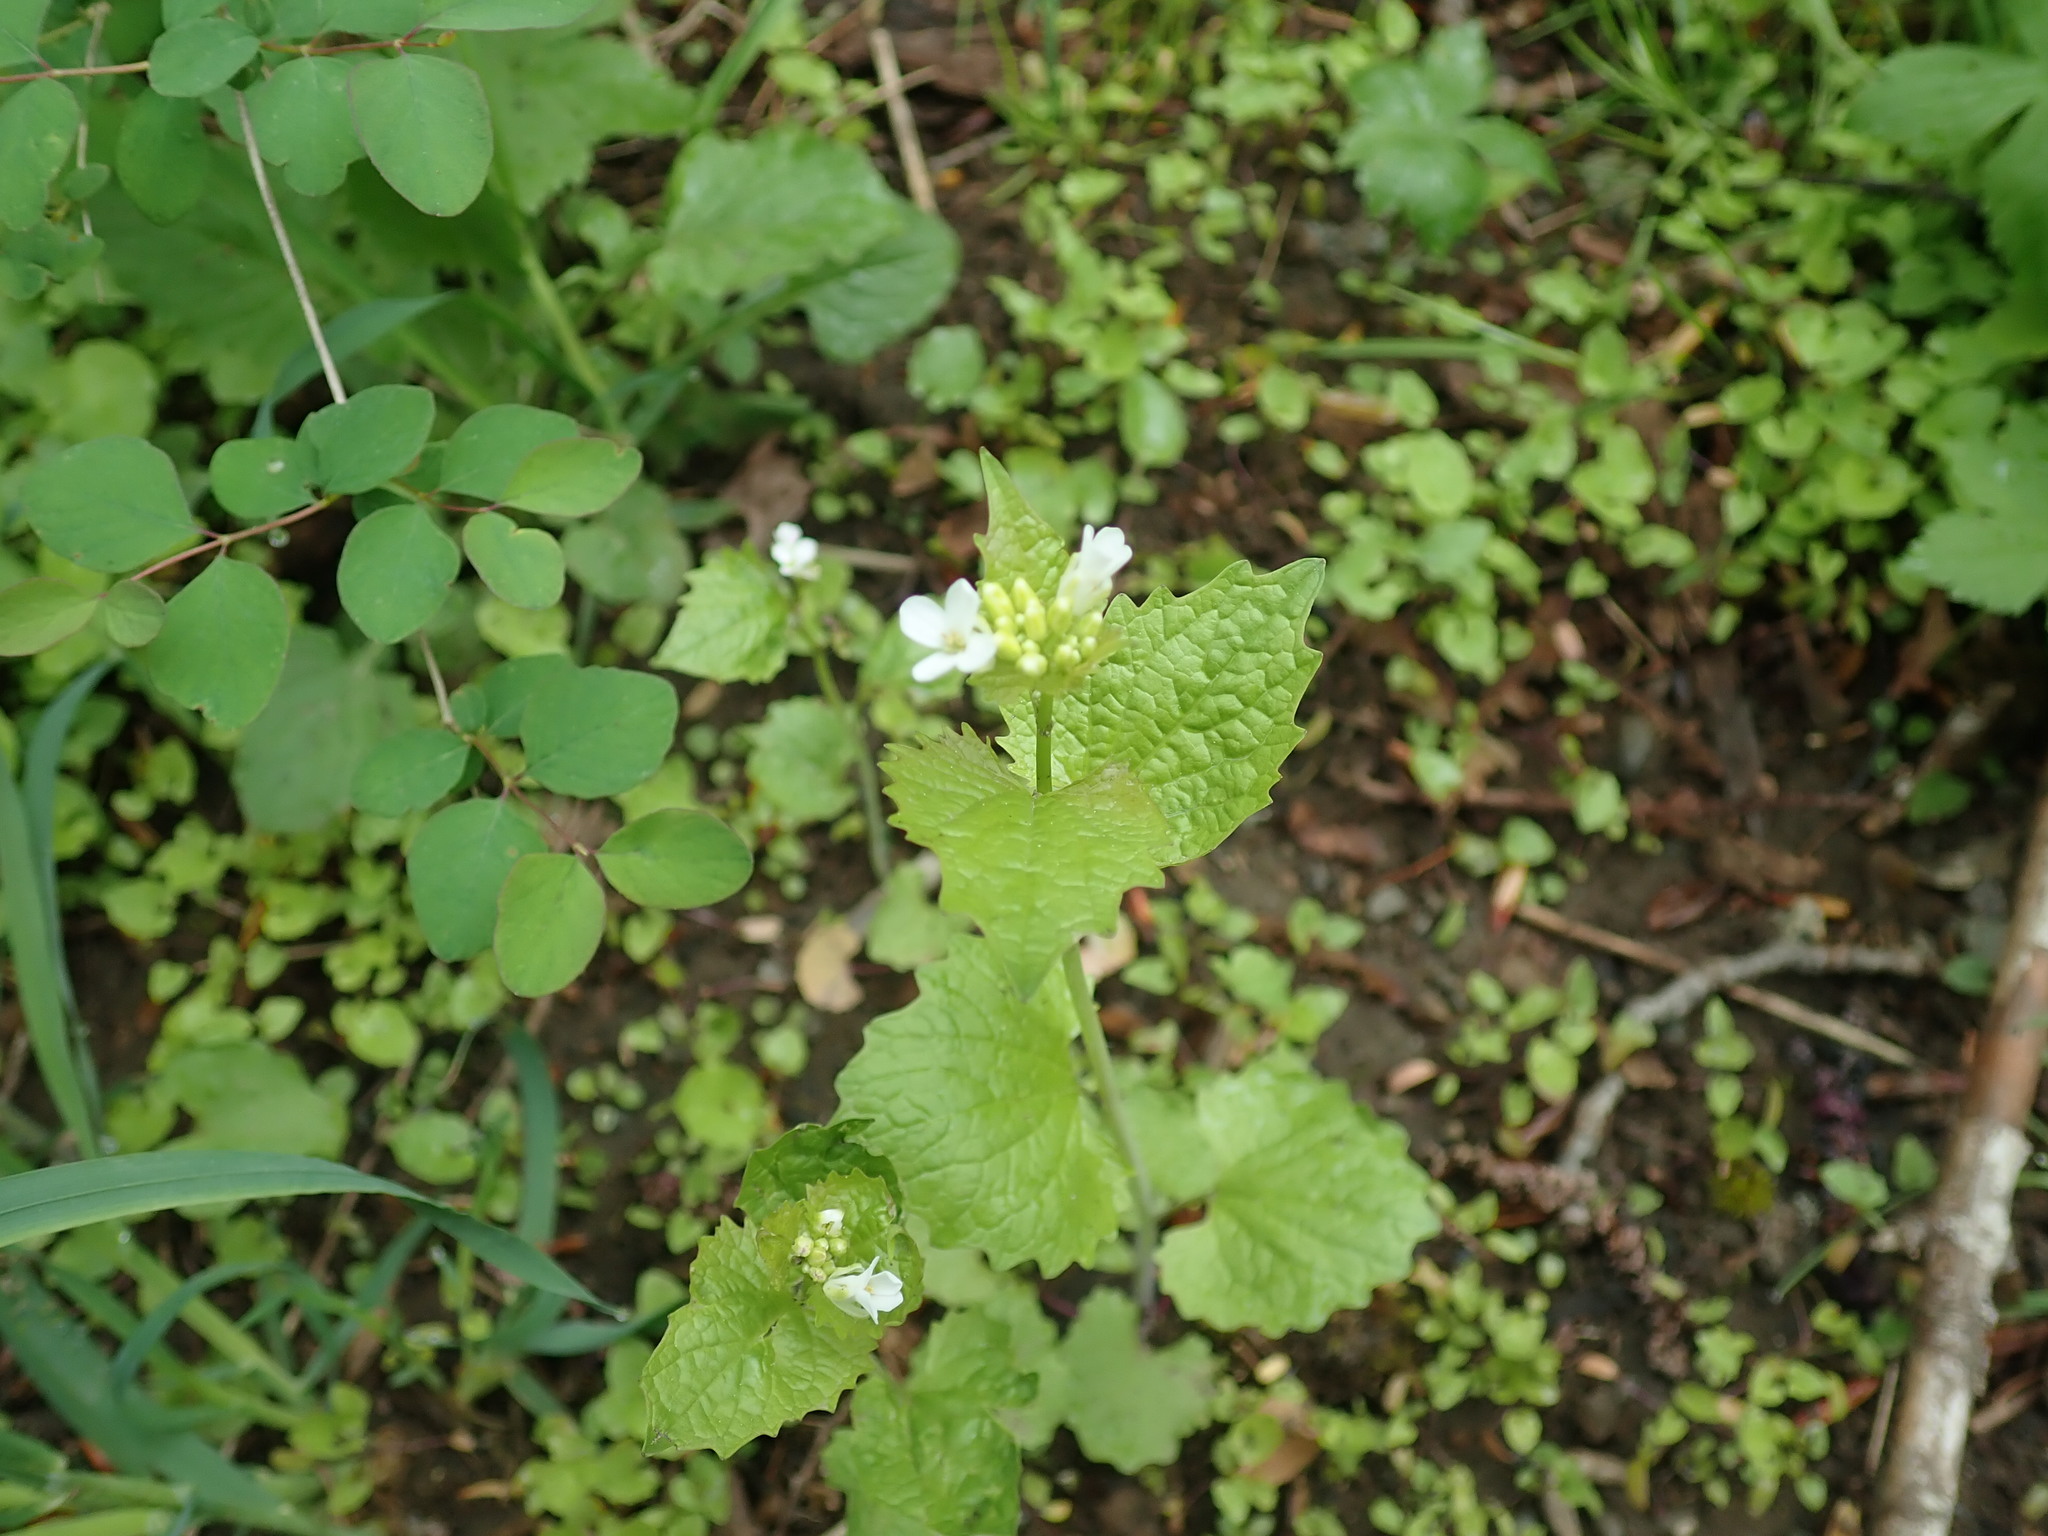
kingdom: Plantae
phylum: Tracheophyta
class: Magnoliopsida
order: Brassicales
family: Brassicaceae
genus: Alliaria
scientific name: Alliaria petiolata
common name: Garlic mustard
